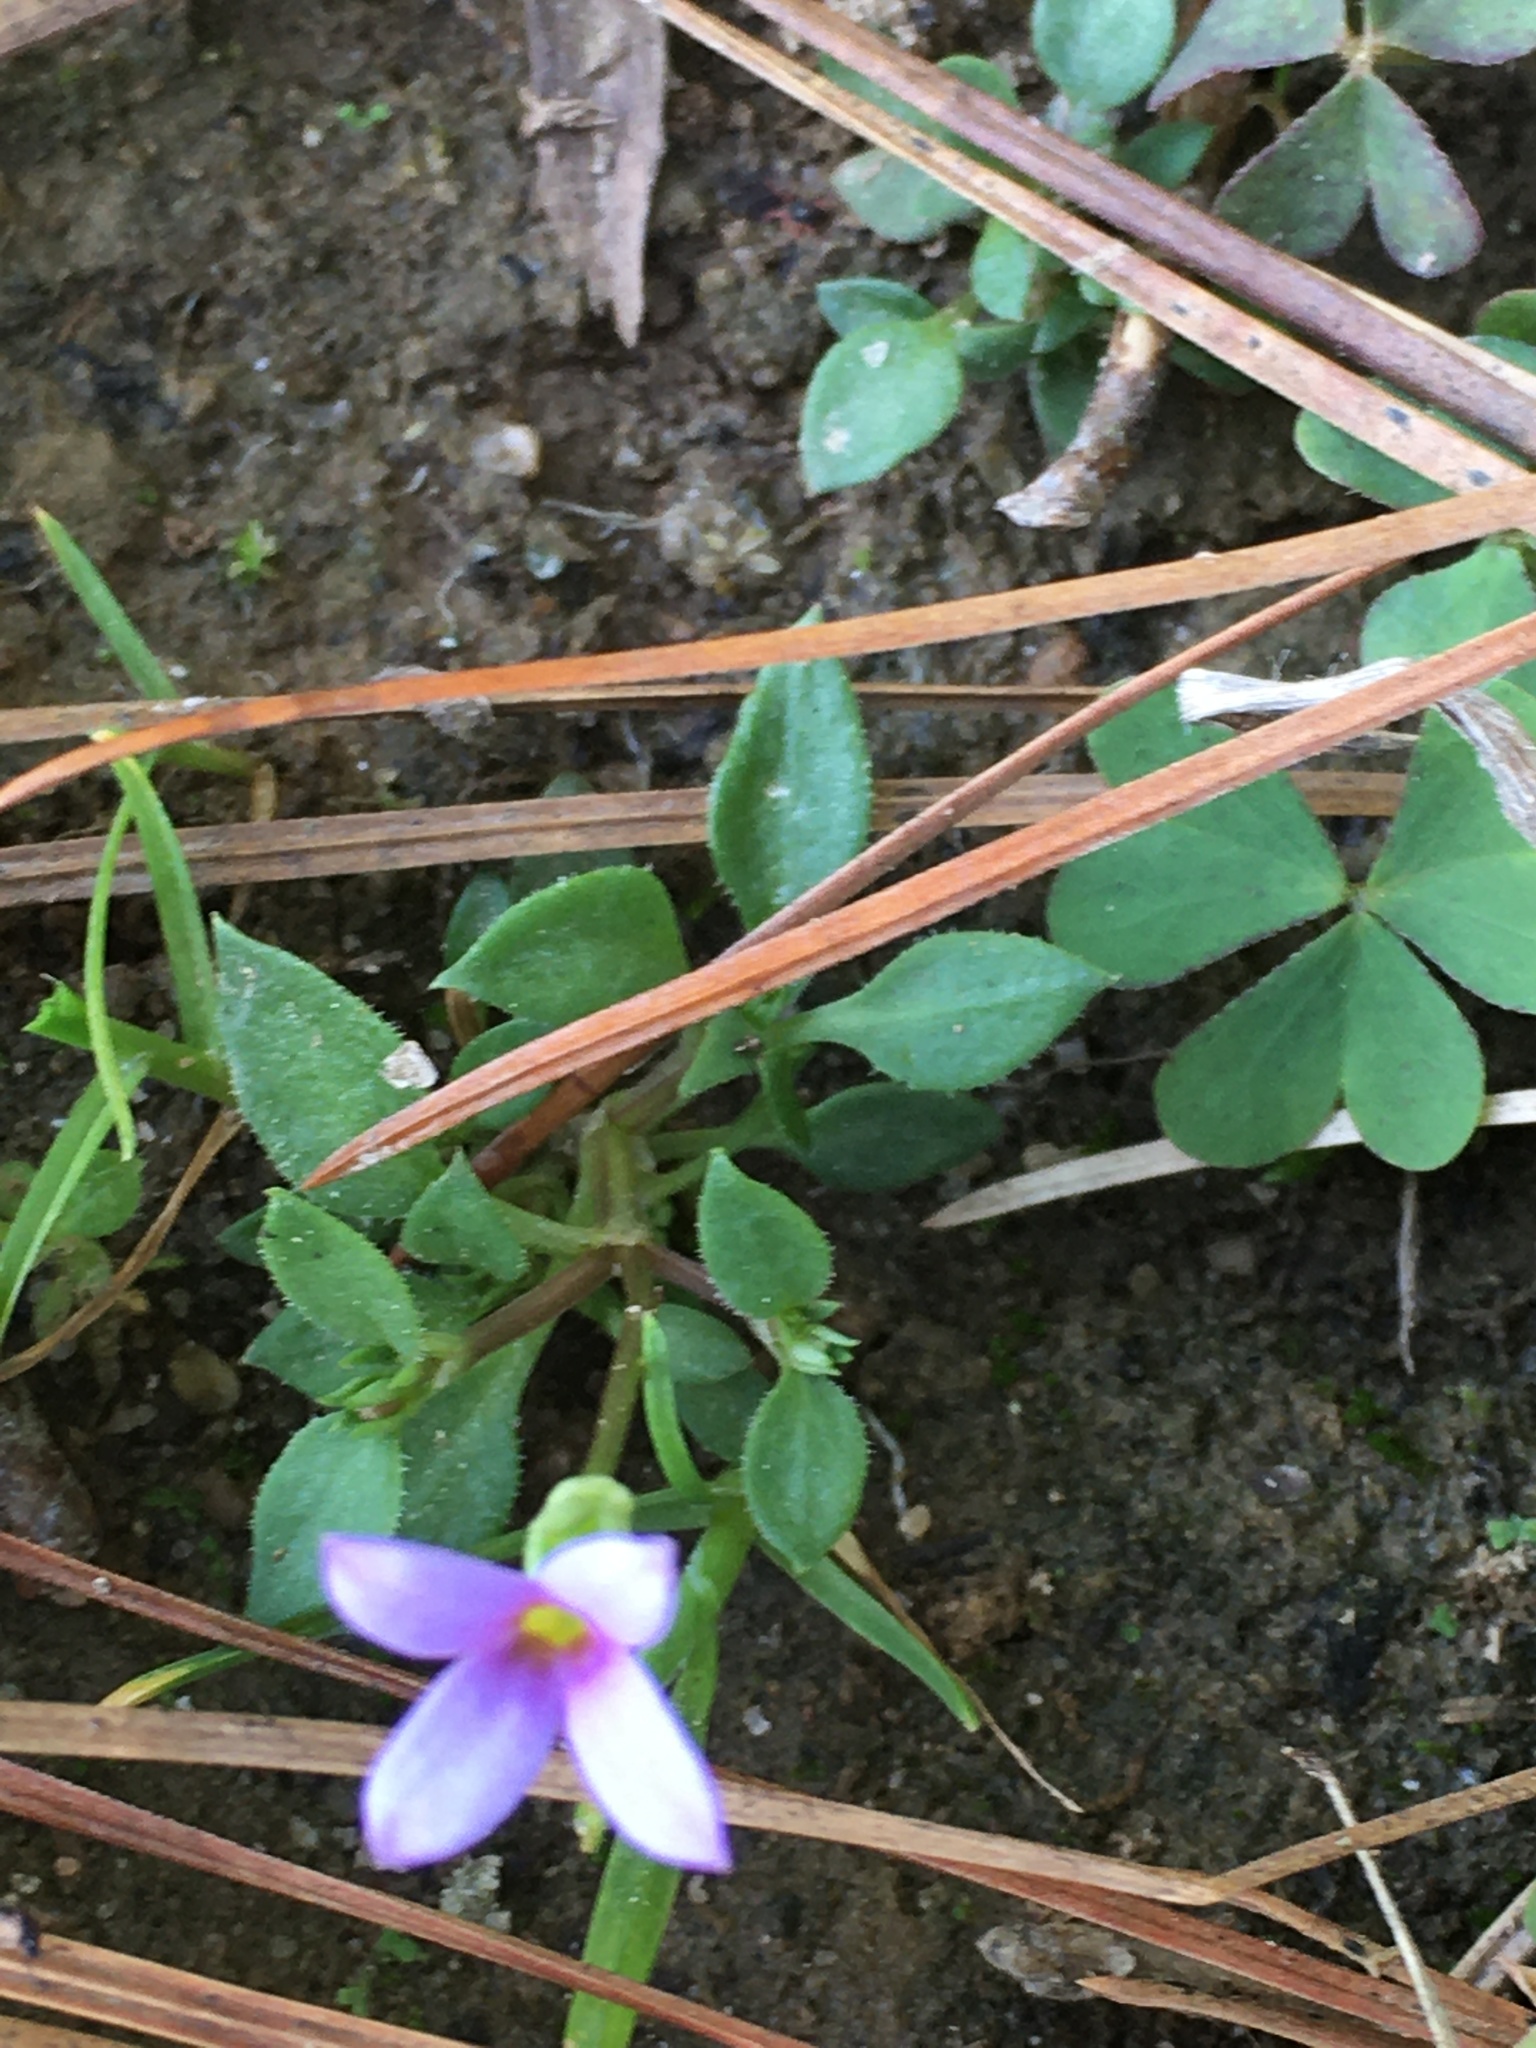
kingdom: Plantae
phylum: Tracheophyta
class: Magnoliopsida
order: Gentianales
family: Rubiaceae
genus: Houstonia
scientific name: Houstonia pusilla
